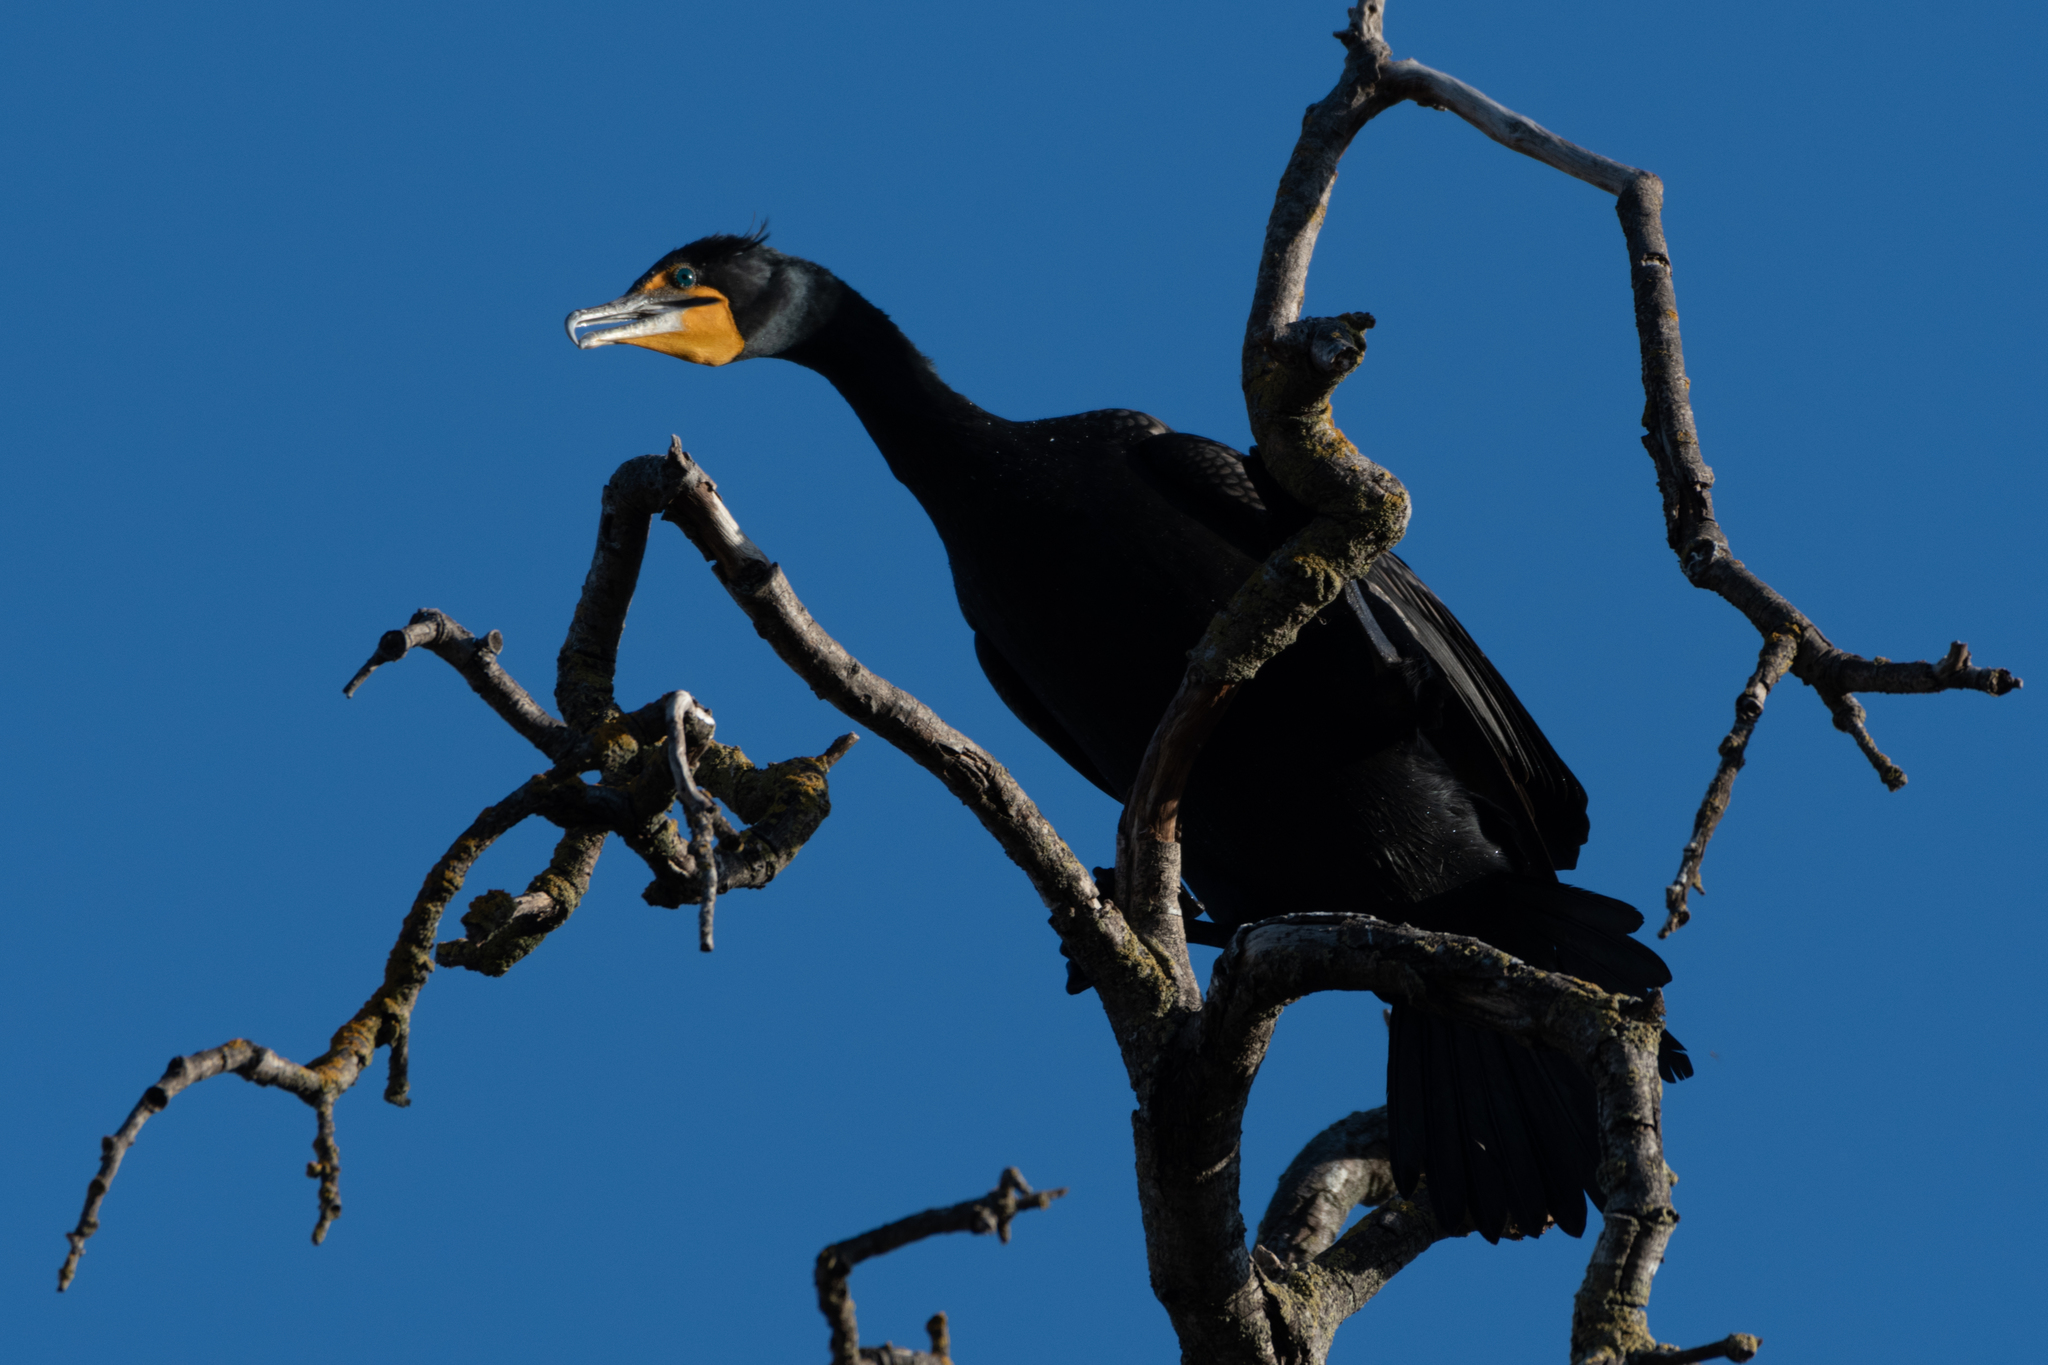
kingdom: Animalia
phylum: Chordata
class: Aves
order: Suliformes
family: Phalacrocoracidae
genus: Phalacrocorax
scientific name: Phalacrocorax auritus
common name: Double-crested cormorant
